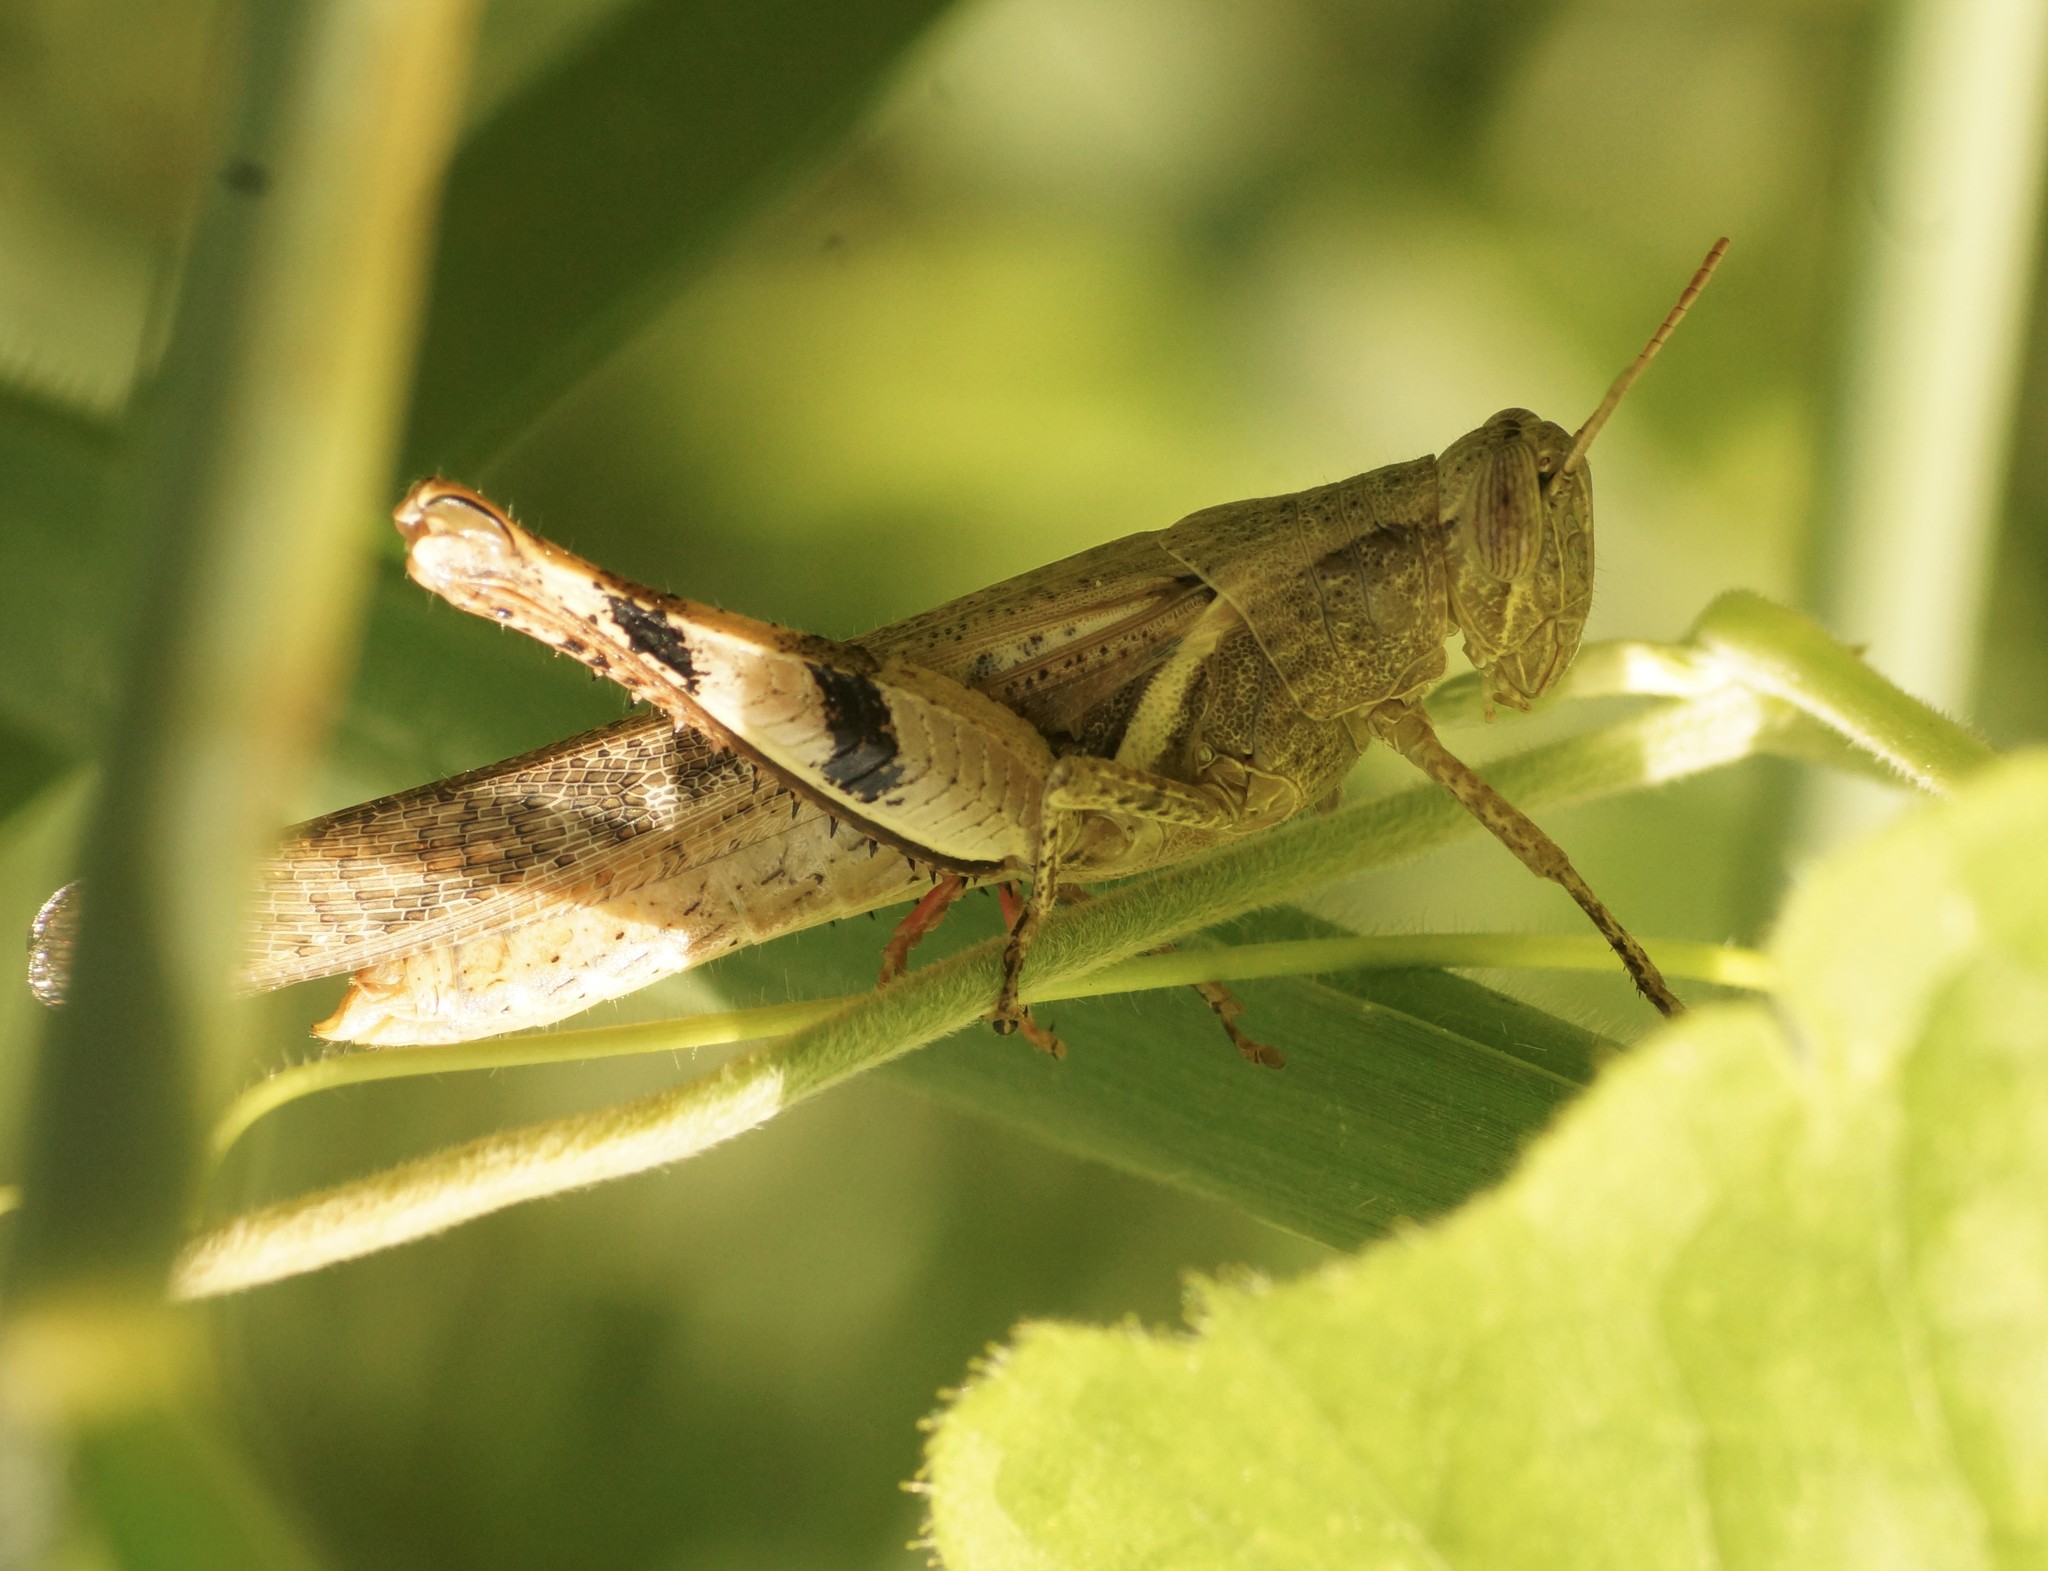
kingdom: Animalia
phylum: Arthropoda
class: Insecta
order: Orthoptera
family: Acrididae
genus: Stenocatantops
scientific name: Stenocatantops angustifrons
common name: Common tropical sharptail
